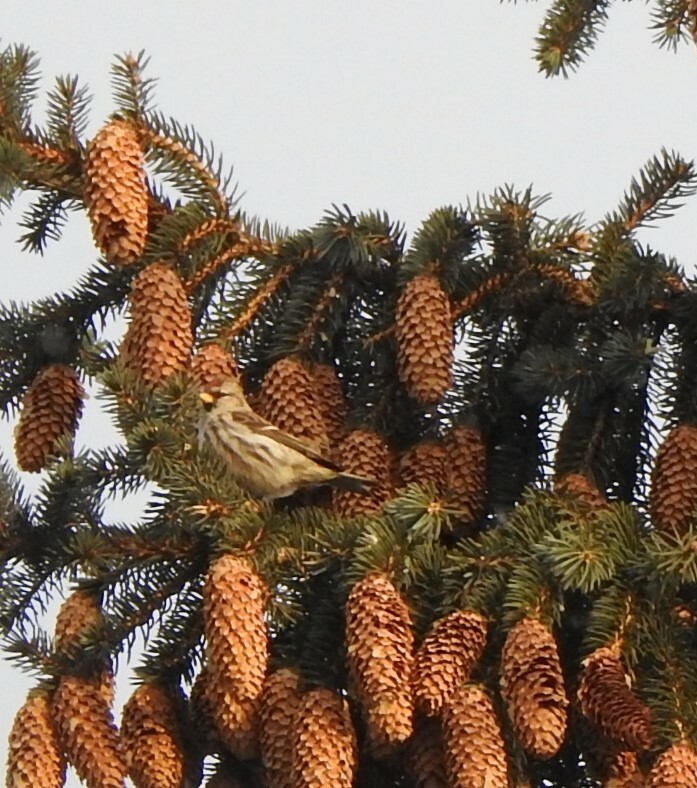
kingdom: Animalia
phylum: Chordata
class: Aves
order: Passeriformes
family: Fringillidae
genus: Acanthis
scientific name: Acanthis flammea
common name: Common redpoll
